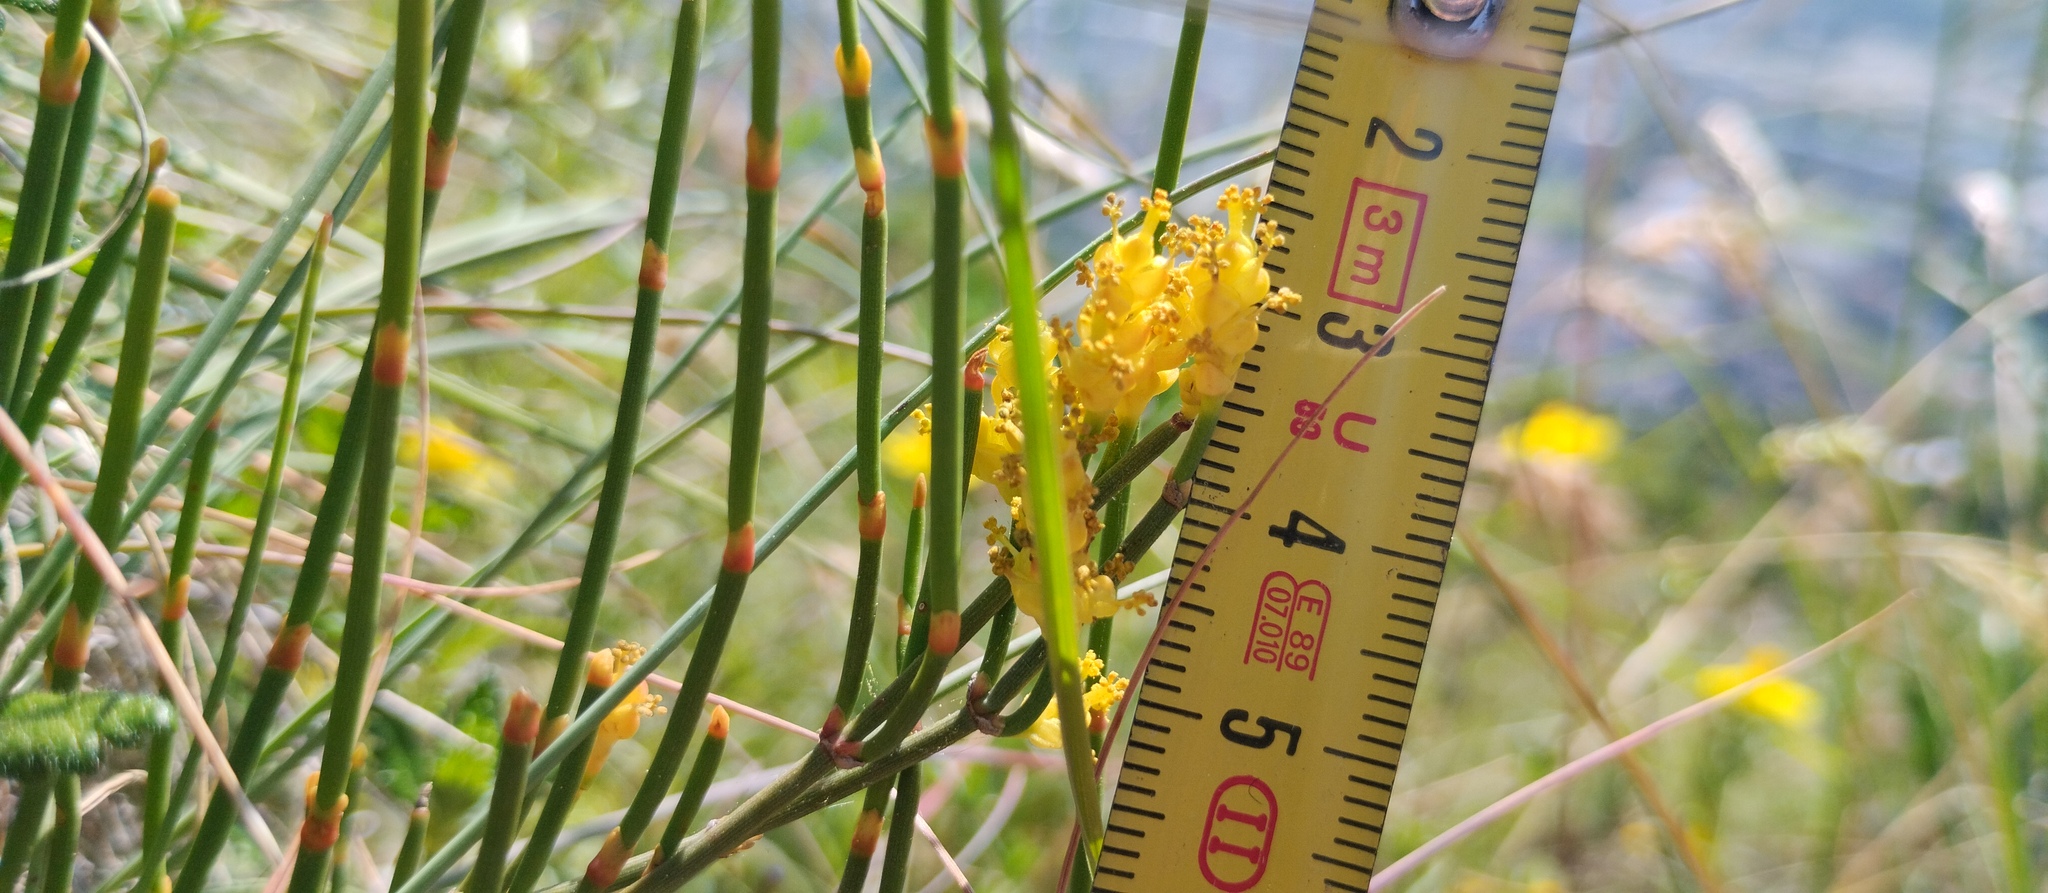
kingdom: Plantae
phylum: Tracheophyta
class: Gnetopsida
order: Ephedrales
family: Ephedraceae
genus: Ephedra
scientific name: Ephedra distachya
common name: Sea grape
